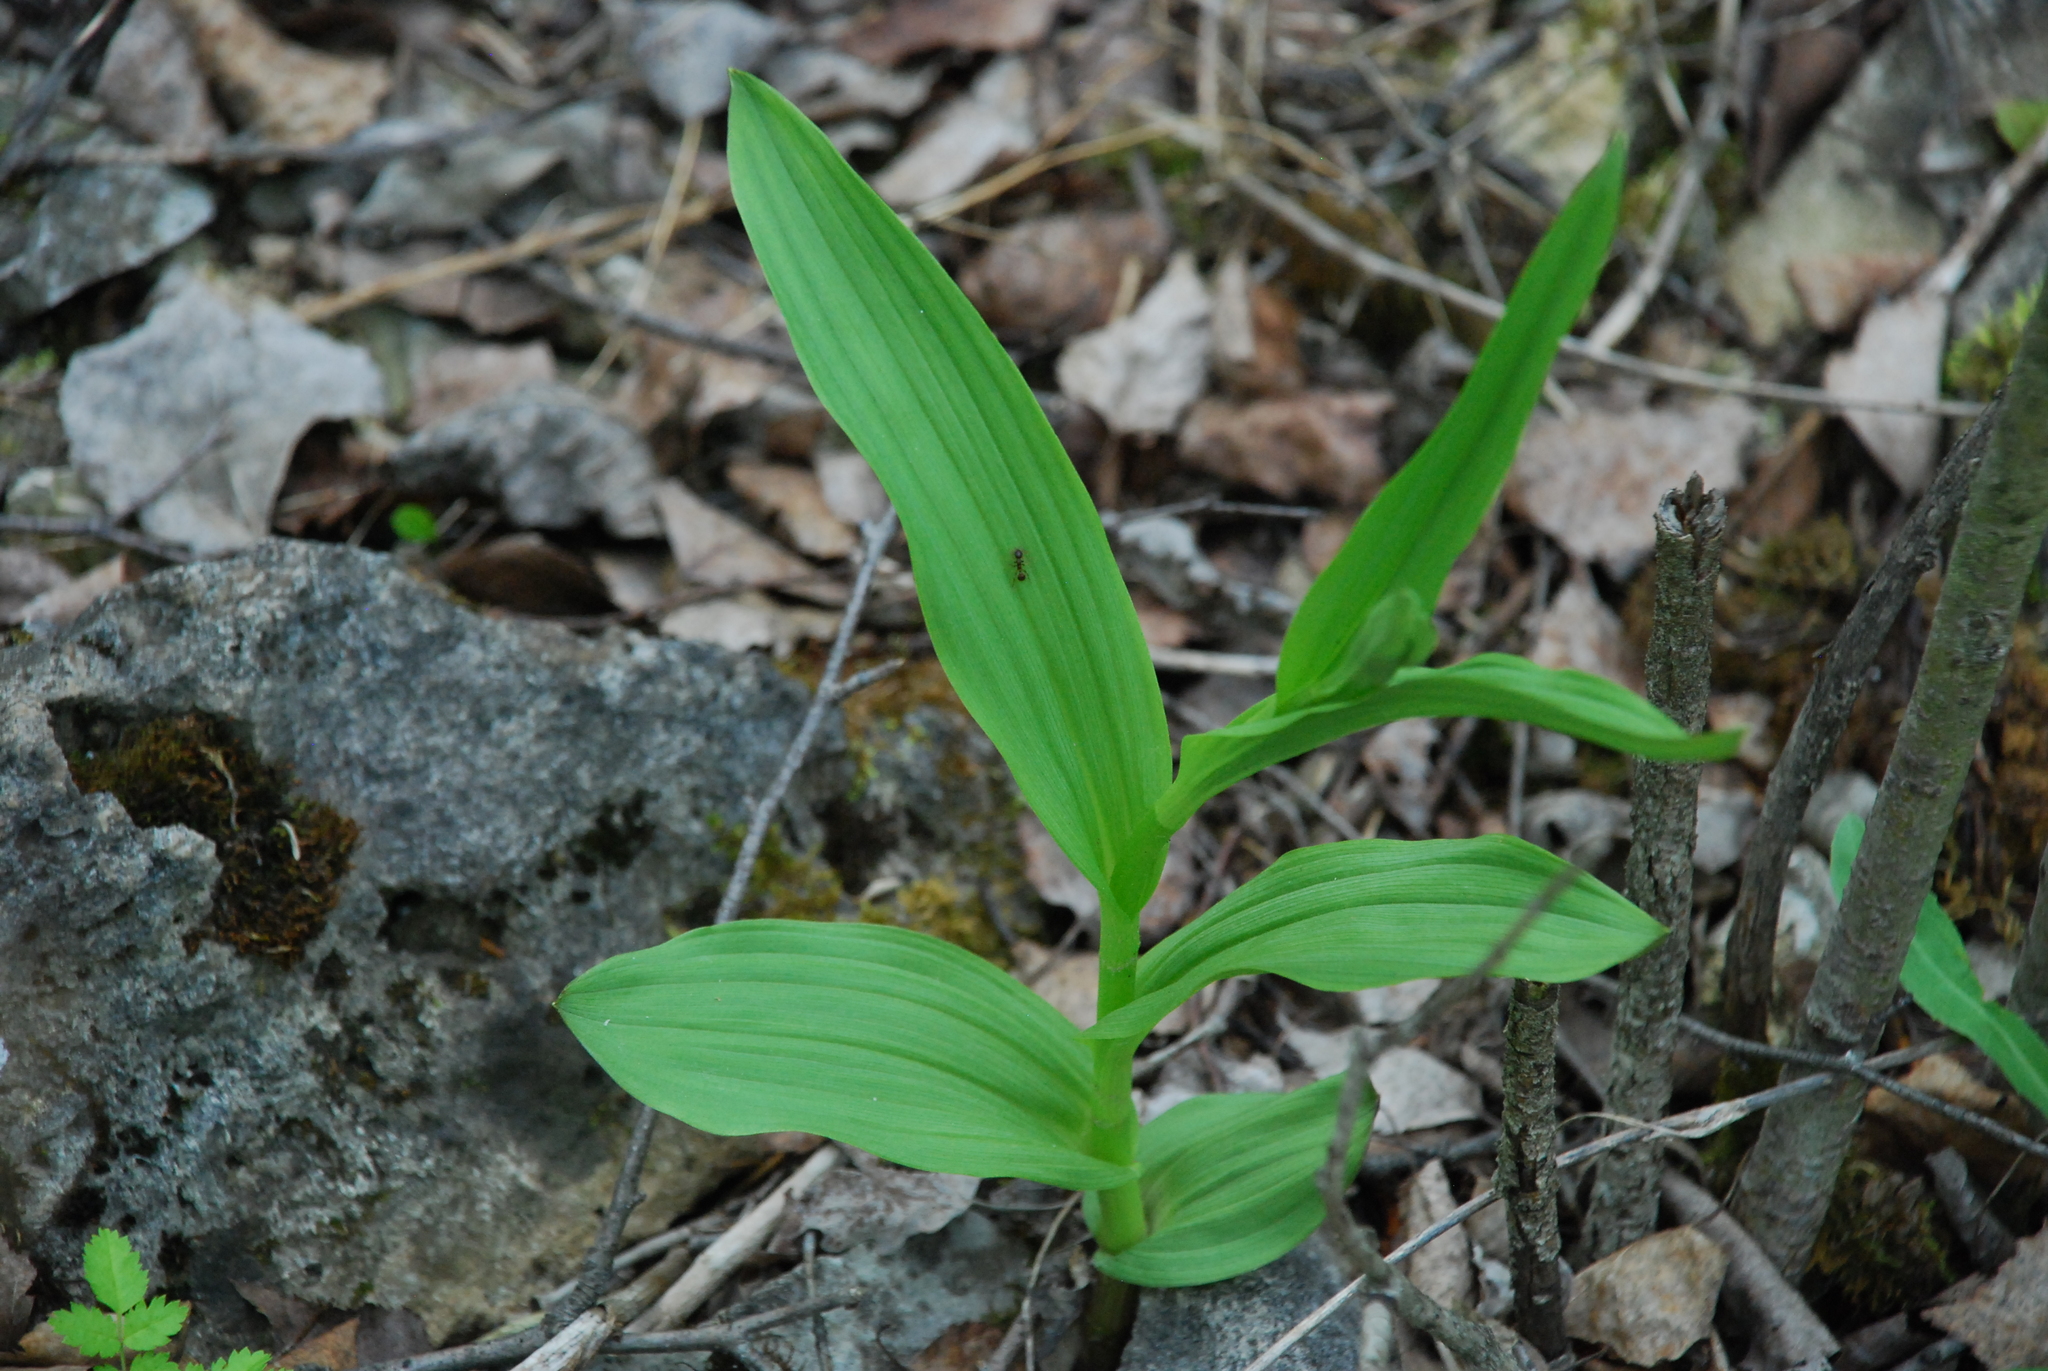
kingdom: Plantae
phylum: Tracheophyta
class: Liliopsida
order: Asparagales
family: Orchidaceae
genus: Epipactis
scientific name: Epipactis palustris
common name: Marsh helleborine
